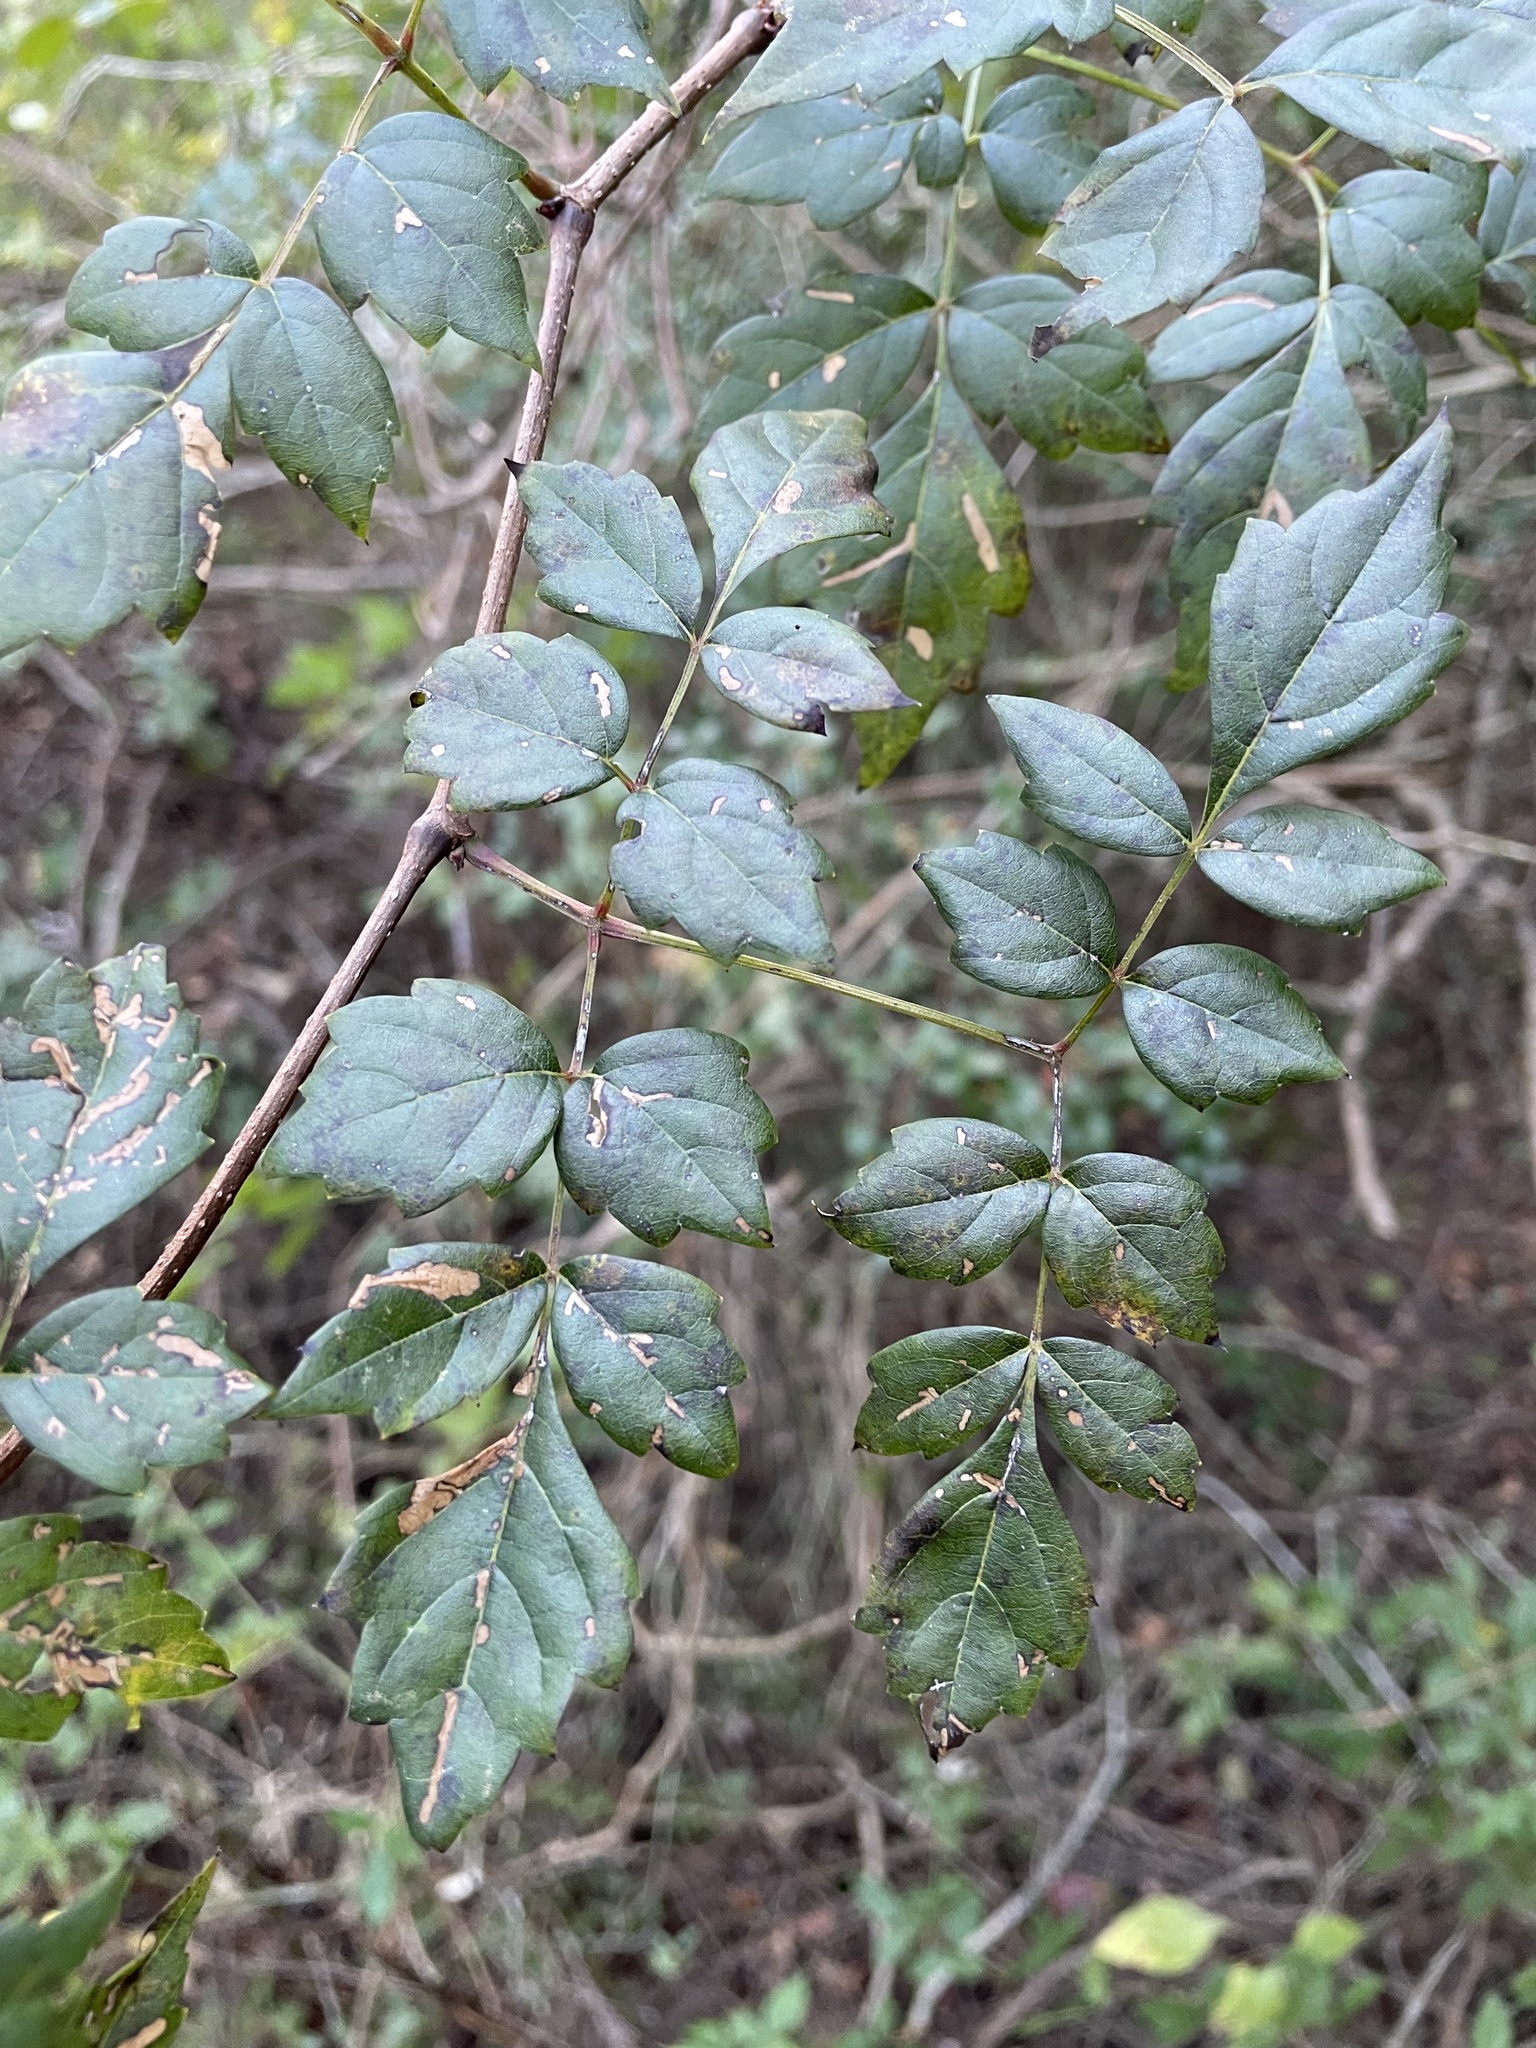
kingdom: Plantae
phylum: Tracheophyta
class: Magnoliopsida
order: Vitales
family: Vitaceae
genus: Nekemias
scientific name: Nekemias arborea
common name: Peppervine
